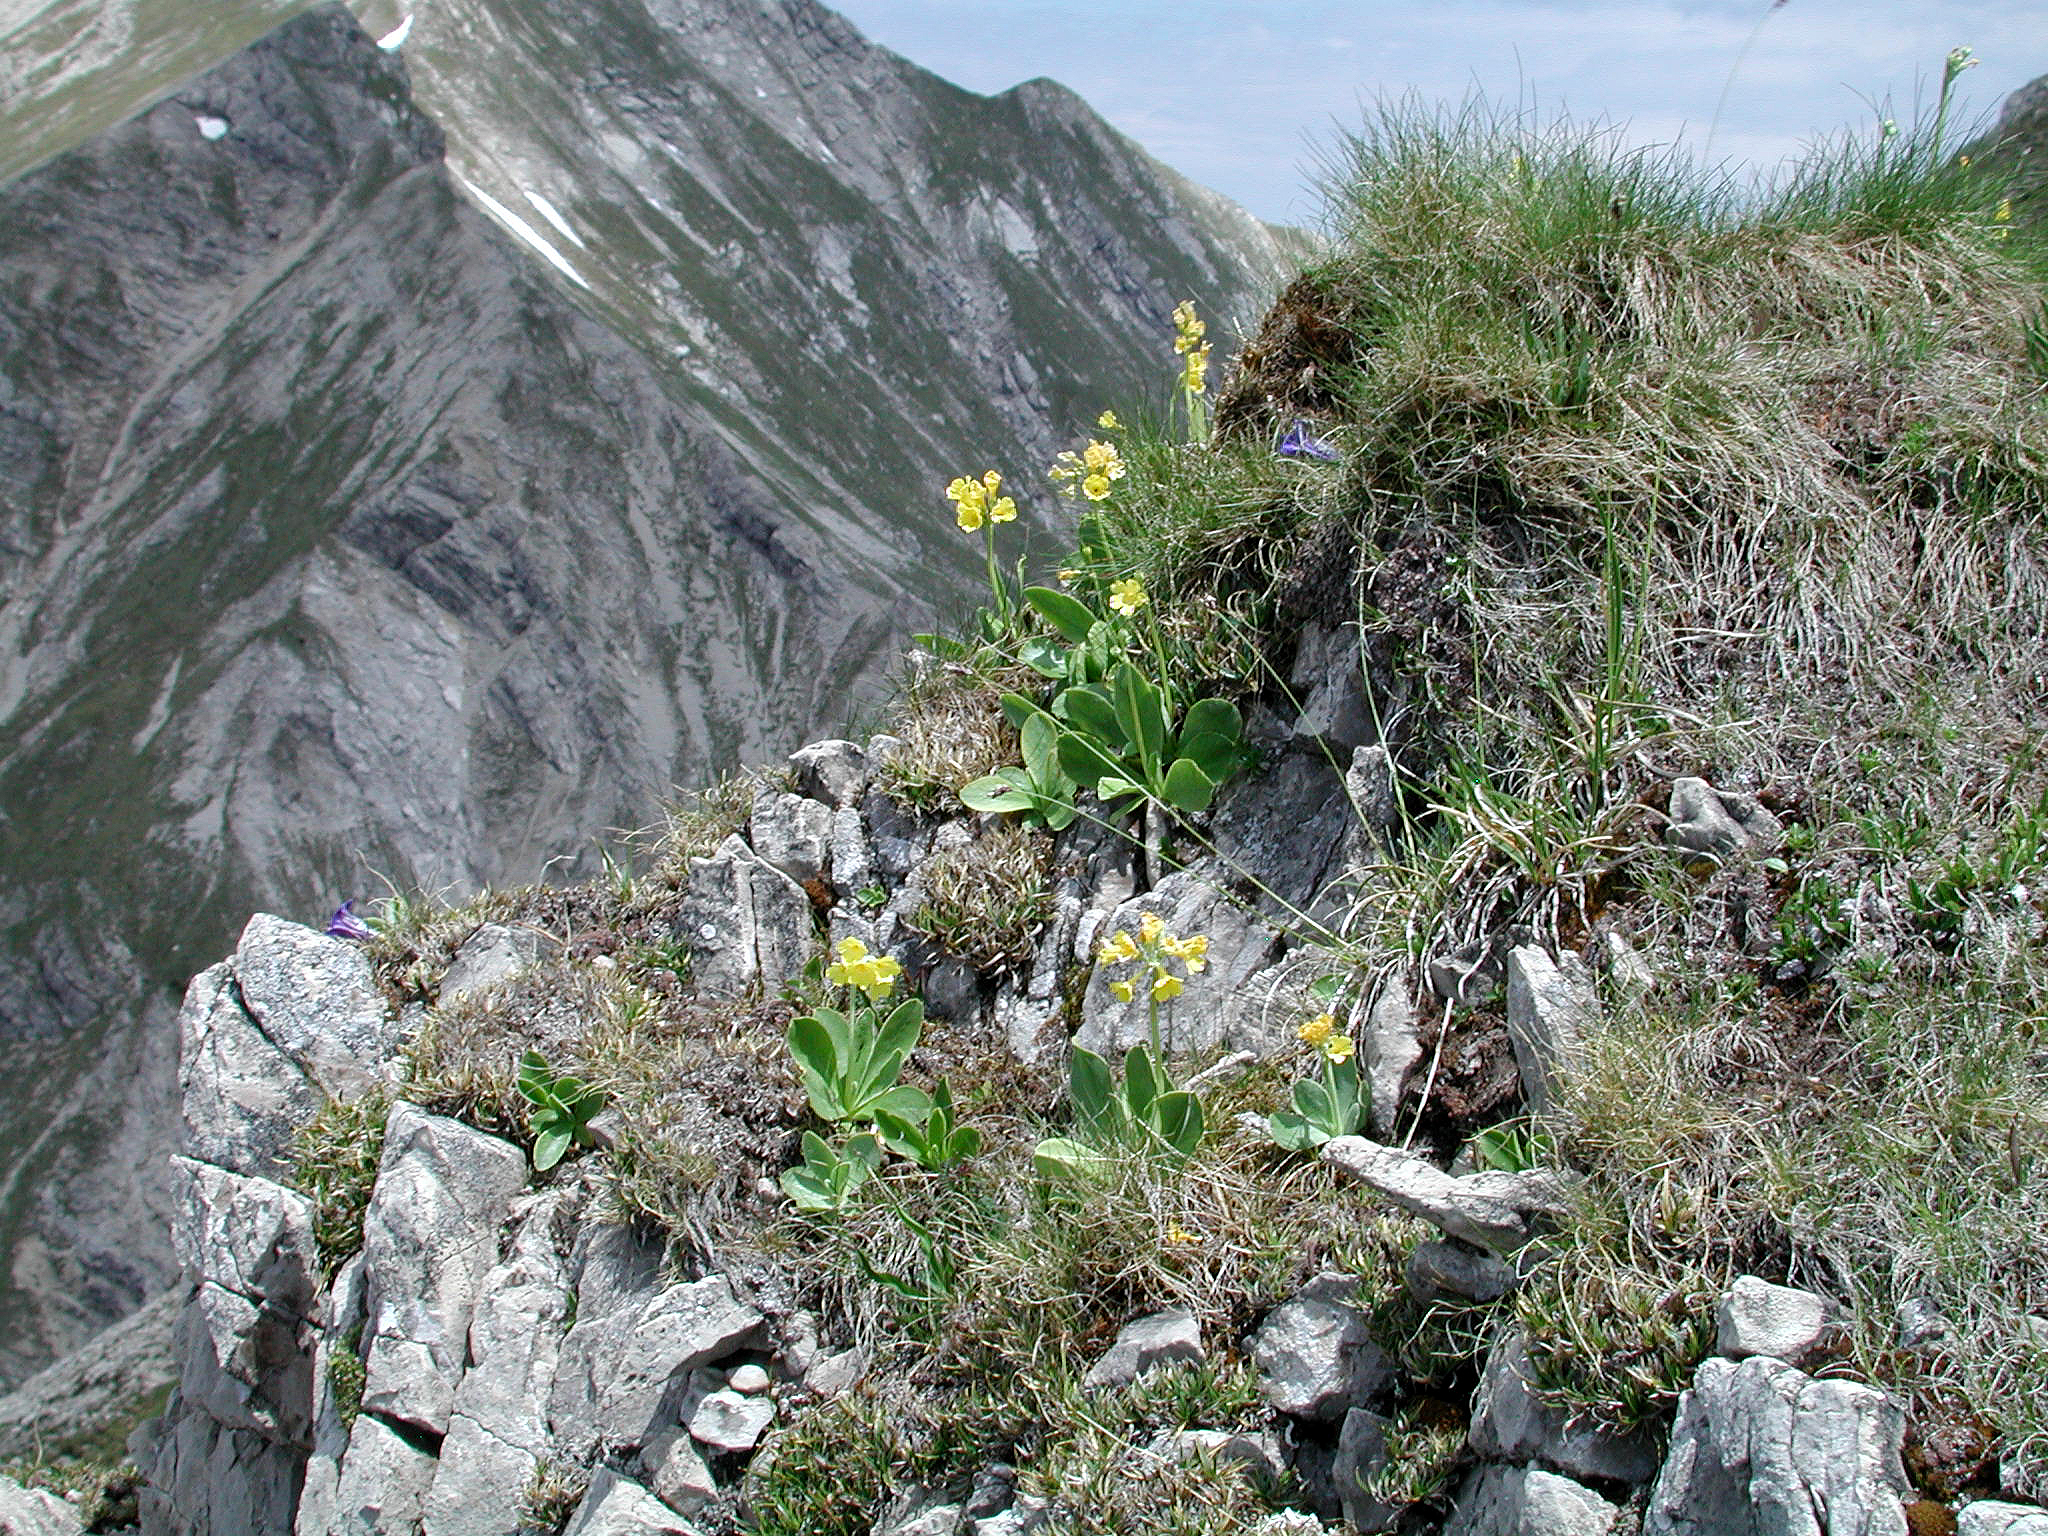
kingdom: Plantae
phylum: Tracheophyta
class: Magnoliopsida
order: Ericales
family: Primulaceae
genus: Primula
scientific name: Primula auricula
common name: Auricula
